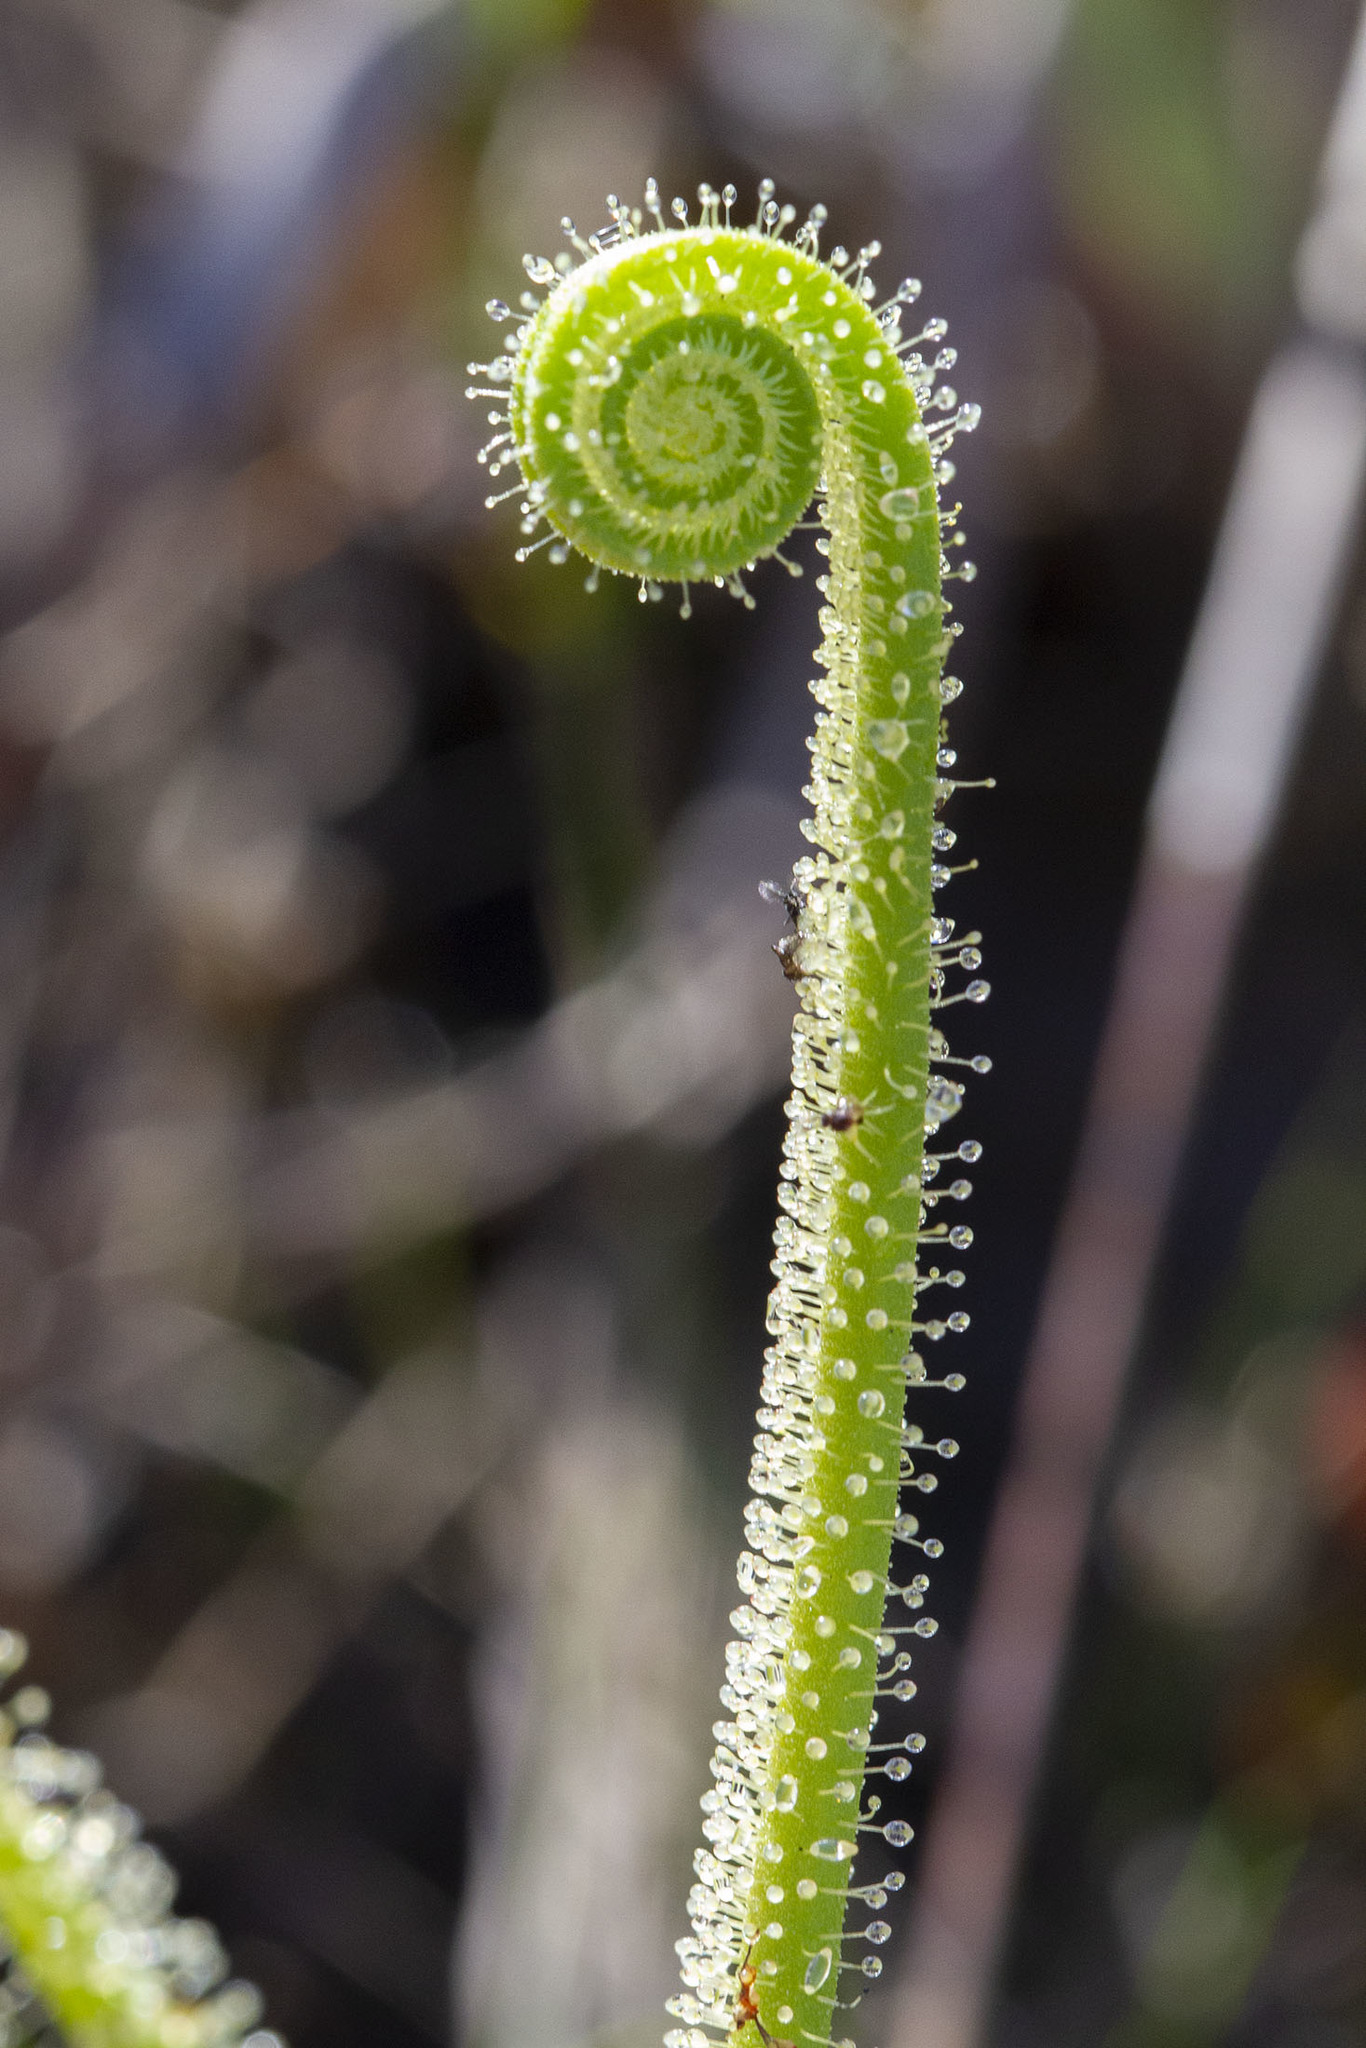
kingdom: Plantae
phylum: Tracheophyta
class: Magnoliopsida
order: Caryophyllales
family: Droseraceae
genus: Drosera
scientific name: Drosera filiformis
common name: Dew-thread
